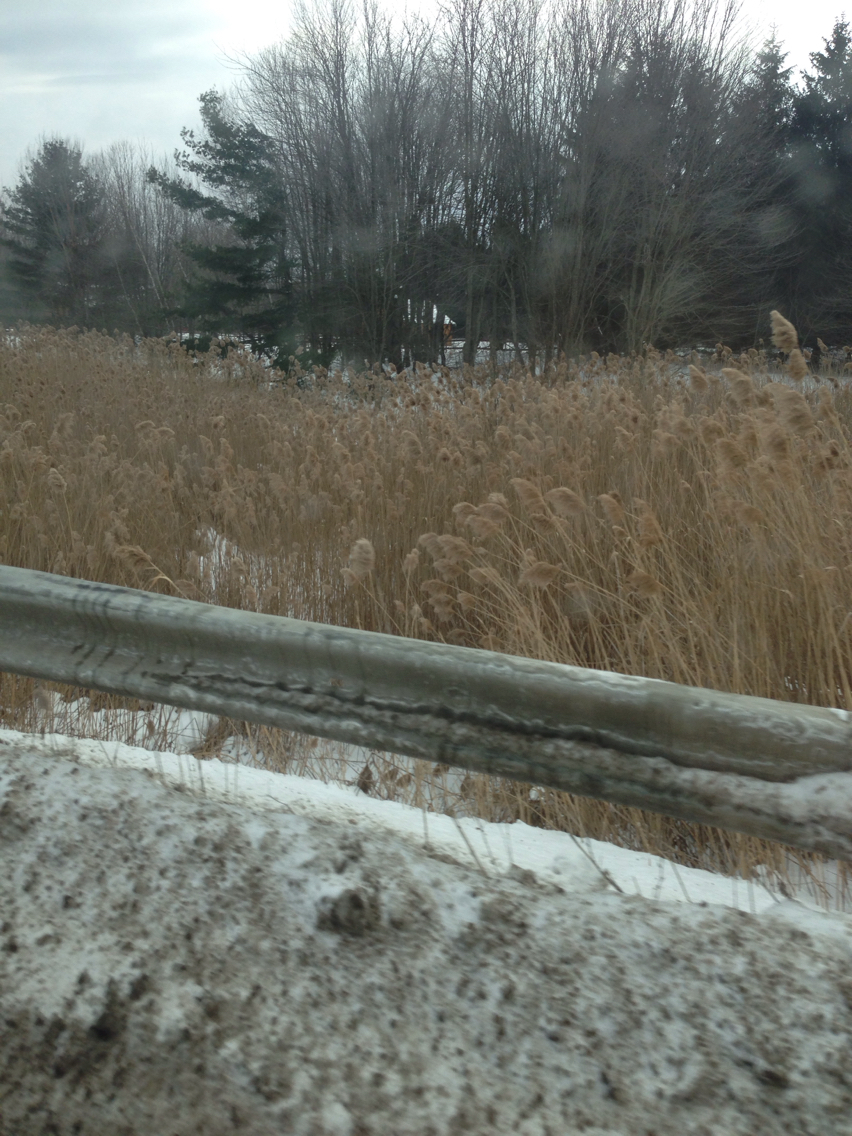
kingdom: Plantae
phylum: Tracheophyta
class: Liliopsida
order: Poales
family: Poaceae
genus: Phragmites
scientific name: Phragmites australis
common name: Common reed
